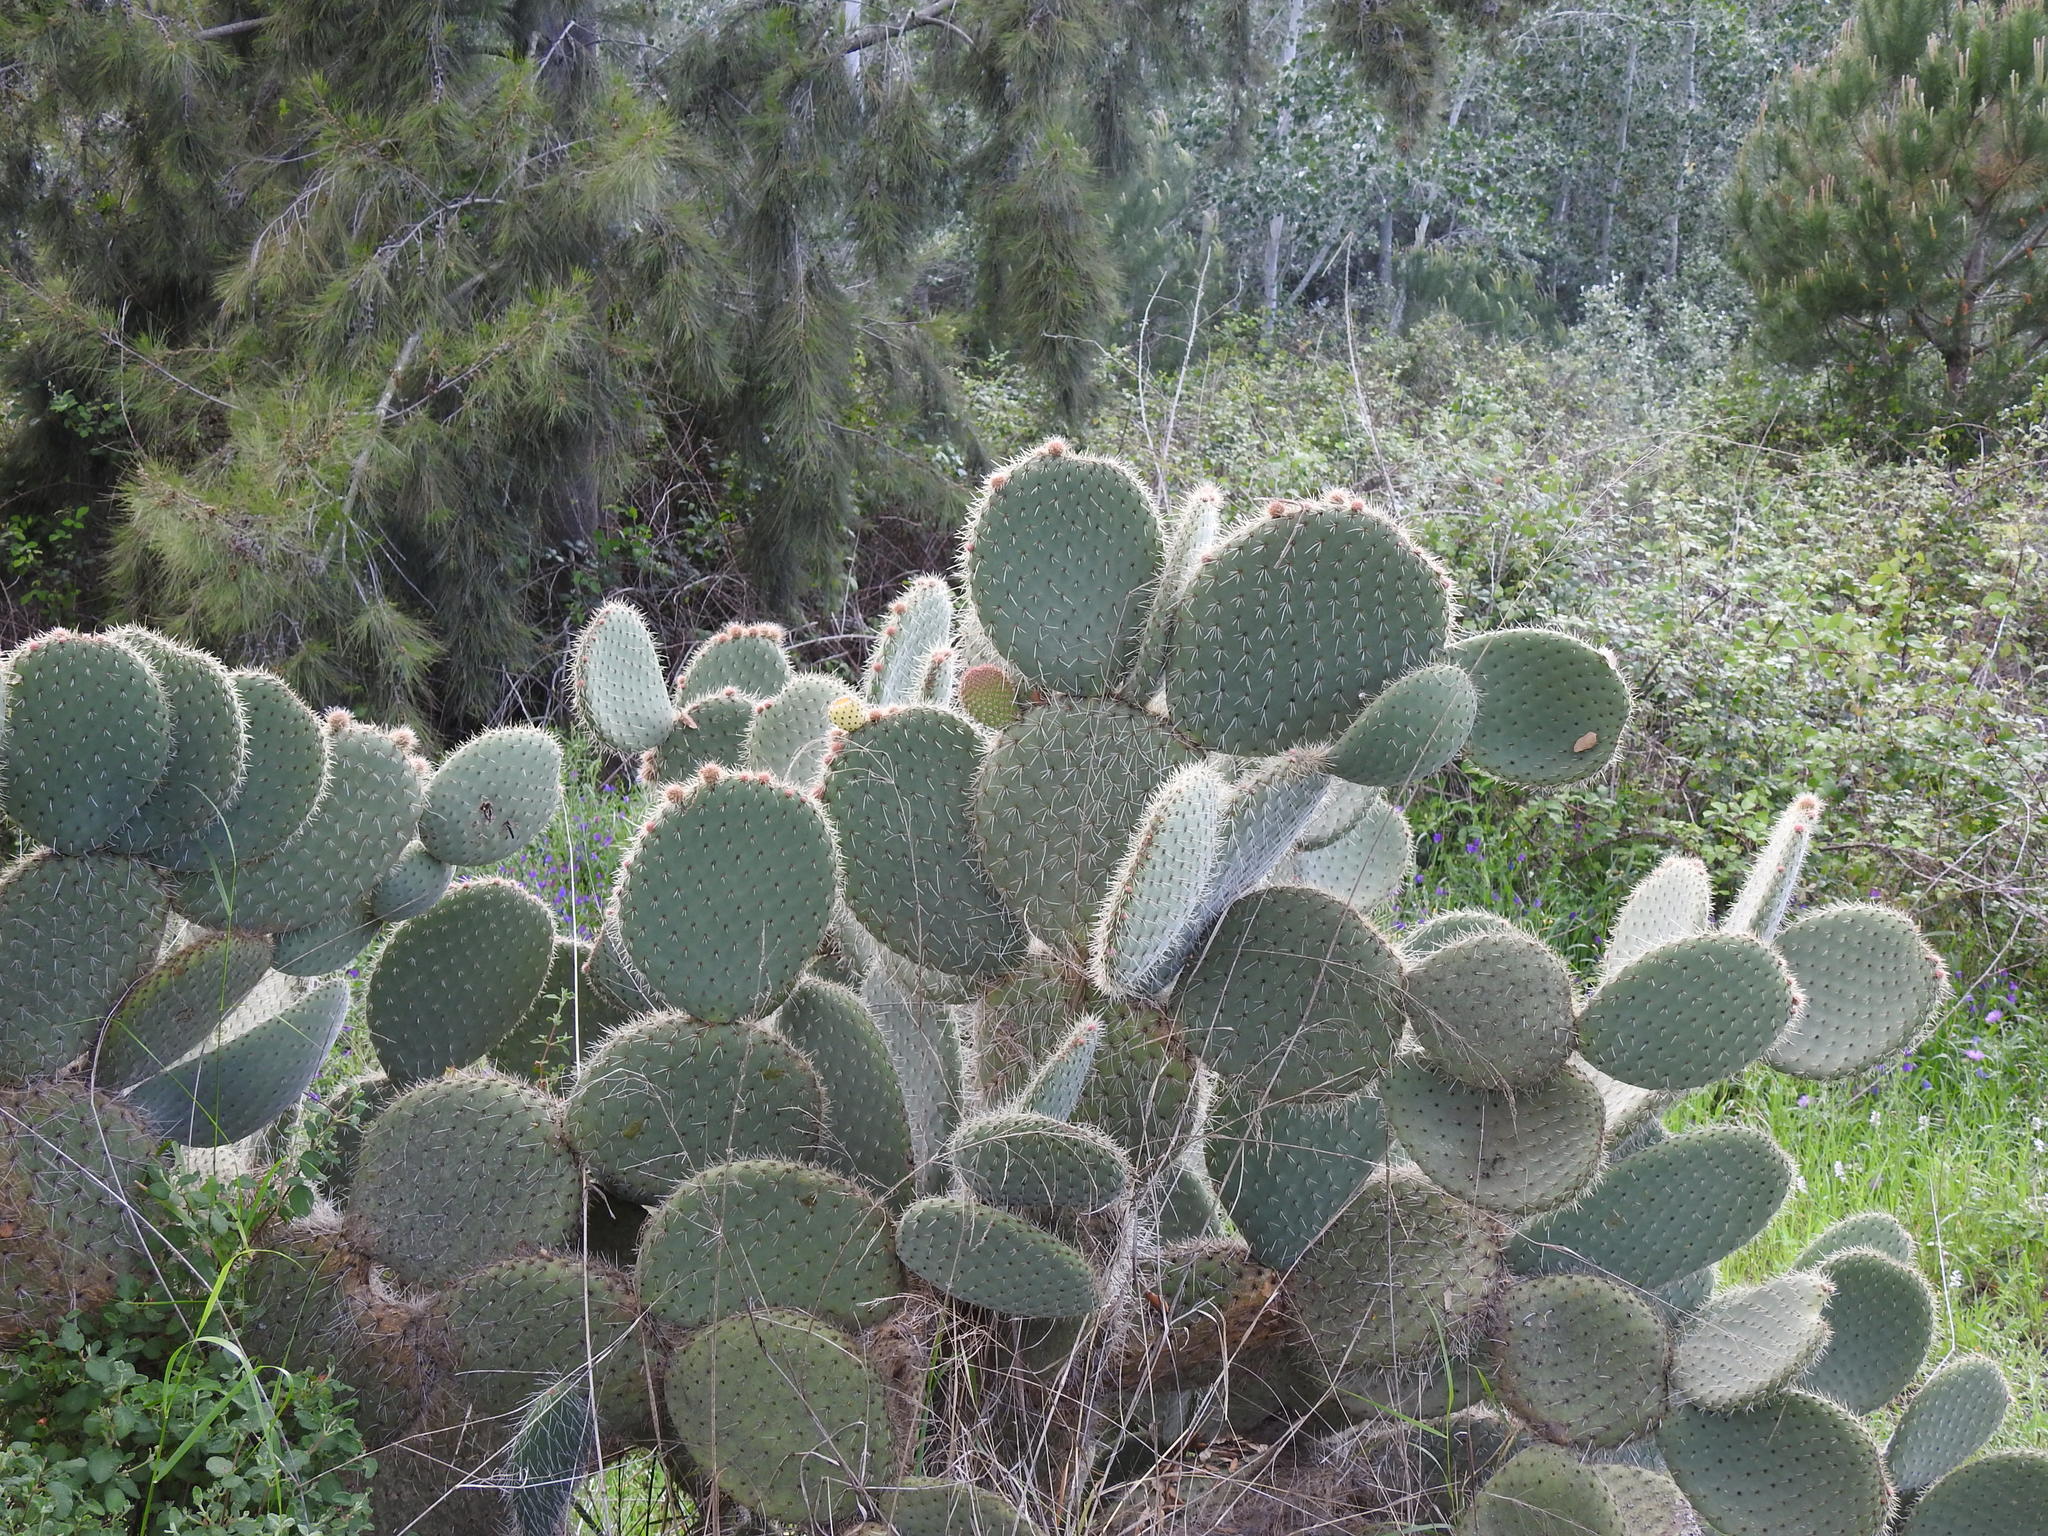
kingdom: Plantae
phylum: Tracheophyta
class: Magnoliopsida
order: Caryophyllales
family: Cactaceae
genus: Opuntia
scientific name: Opuntia leucotricha
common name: Arborescent pricklypear
